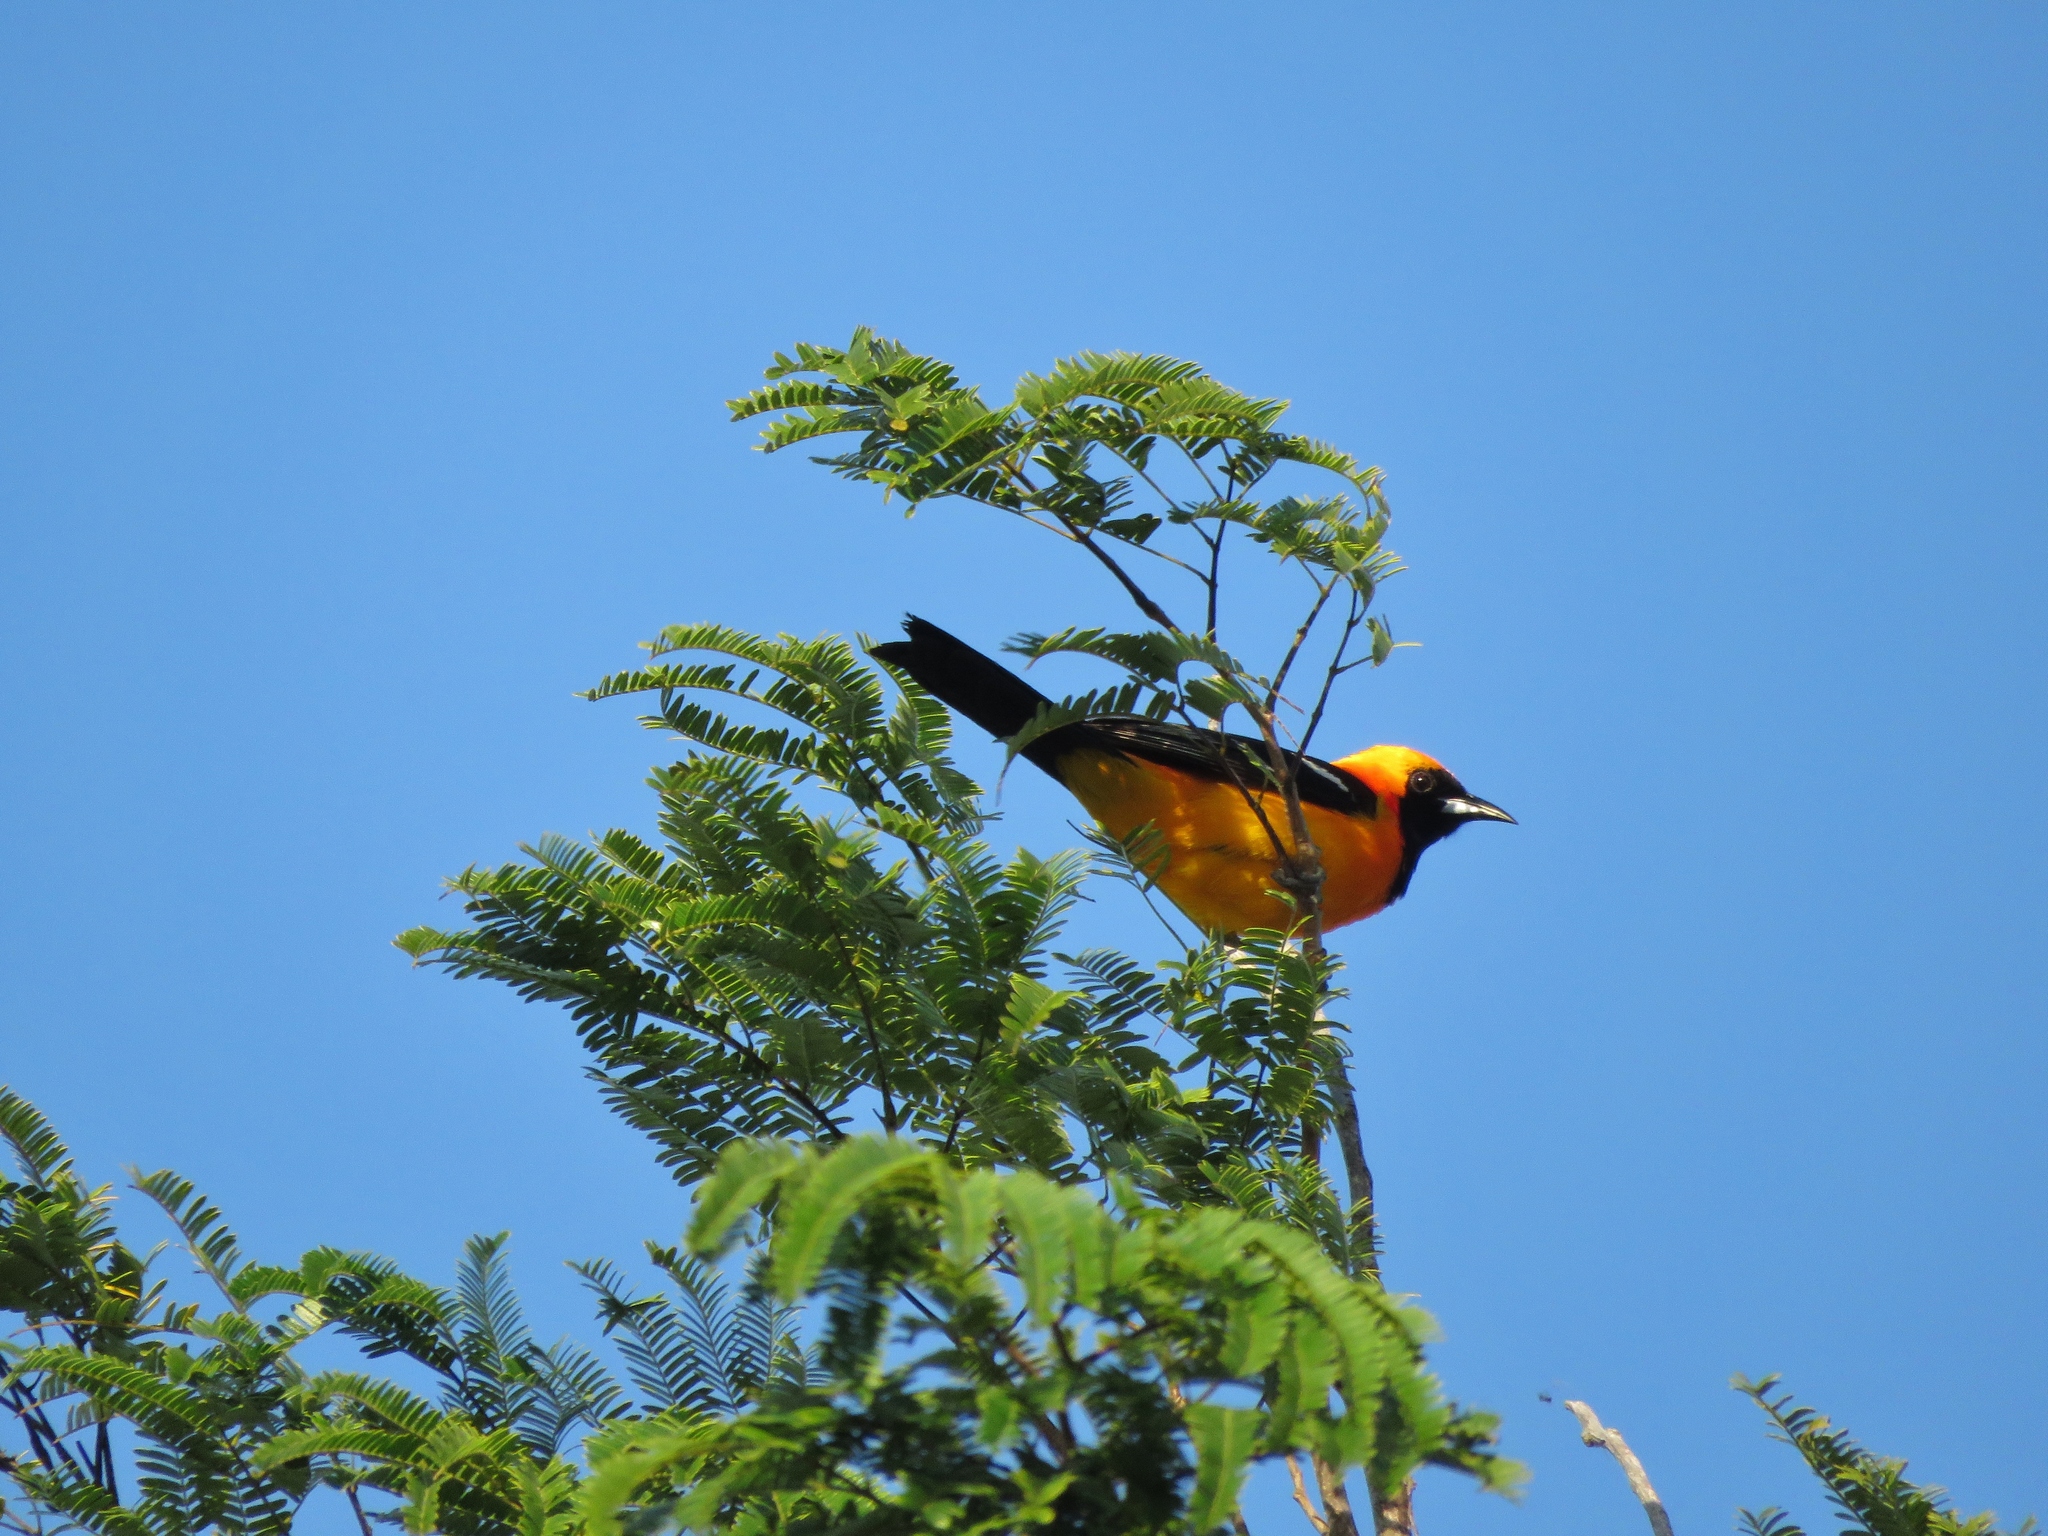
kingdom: Animalia
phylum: Chordata
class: Aves
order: Passeriformes
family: Icteridae
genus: Icterus
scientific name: Icterus cucullatus
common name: Hooded oriole
